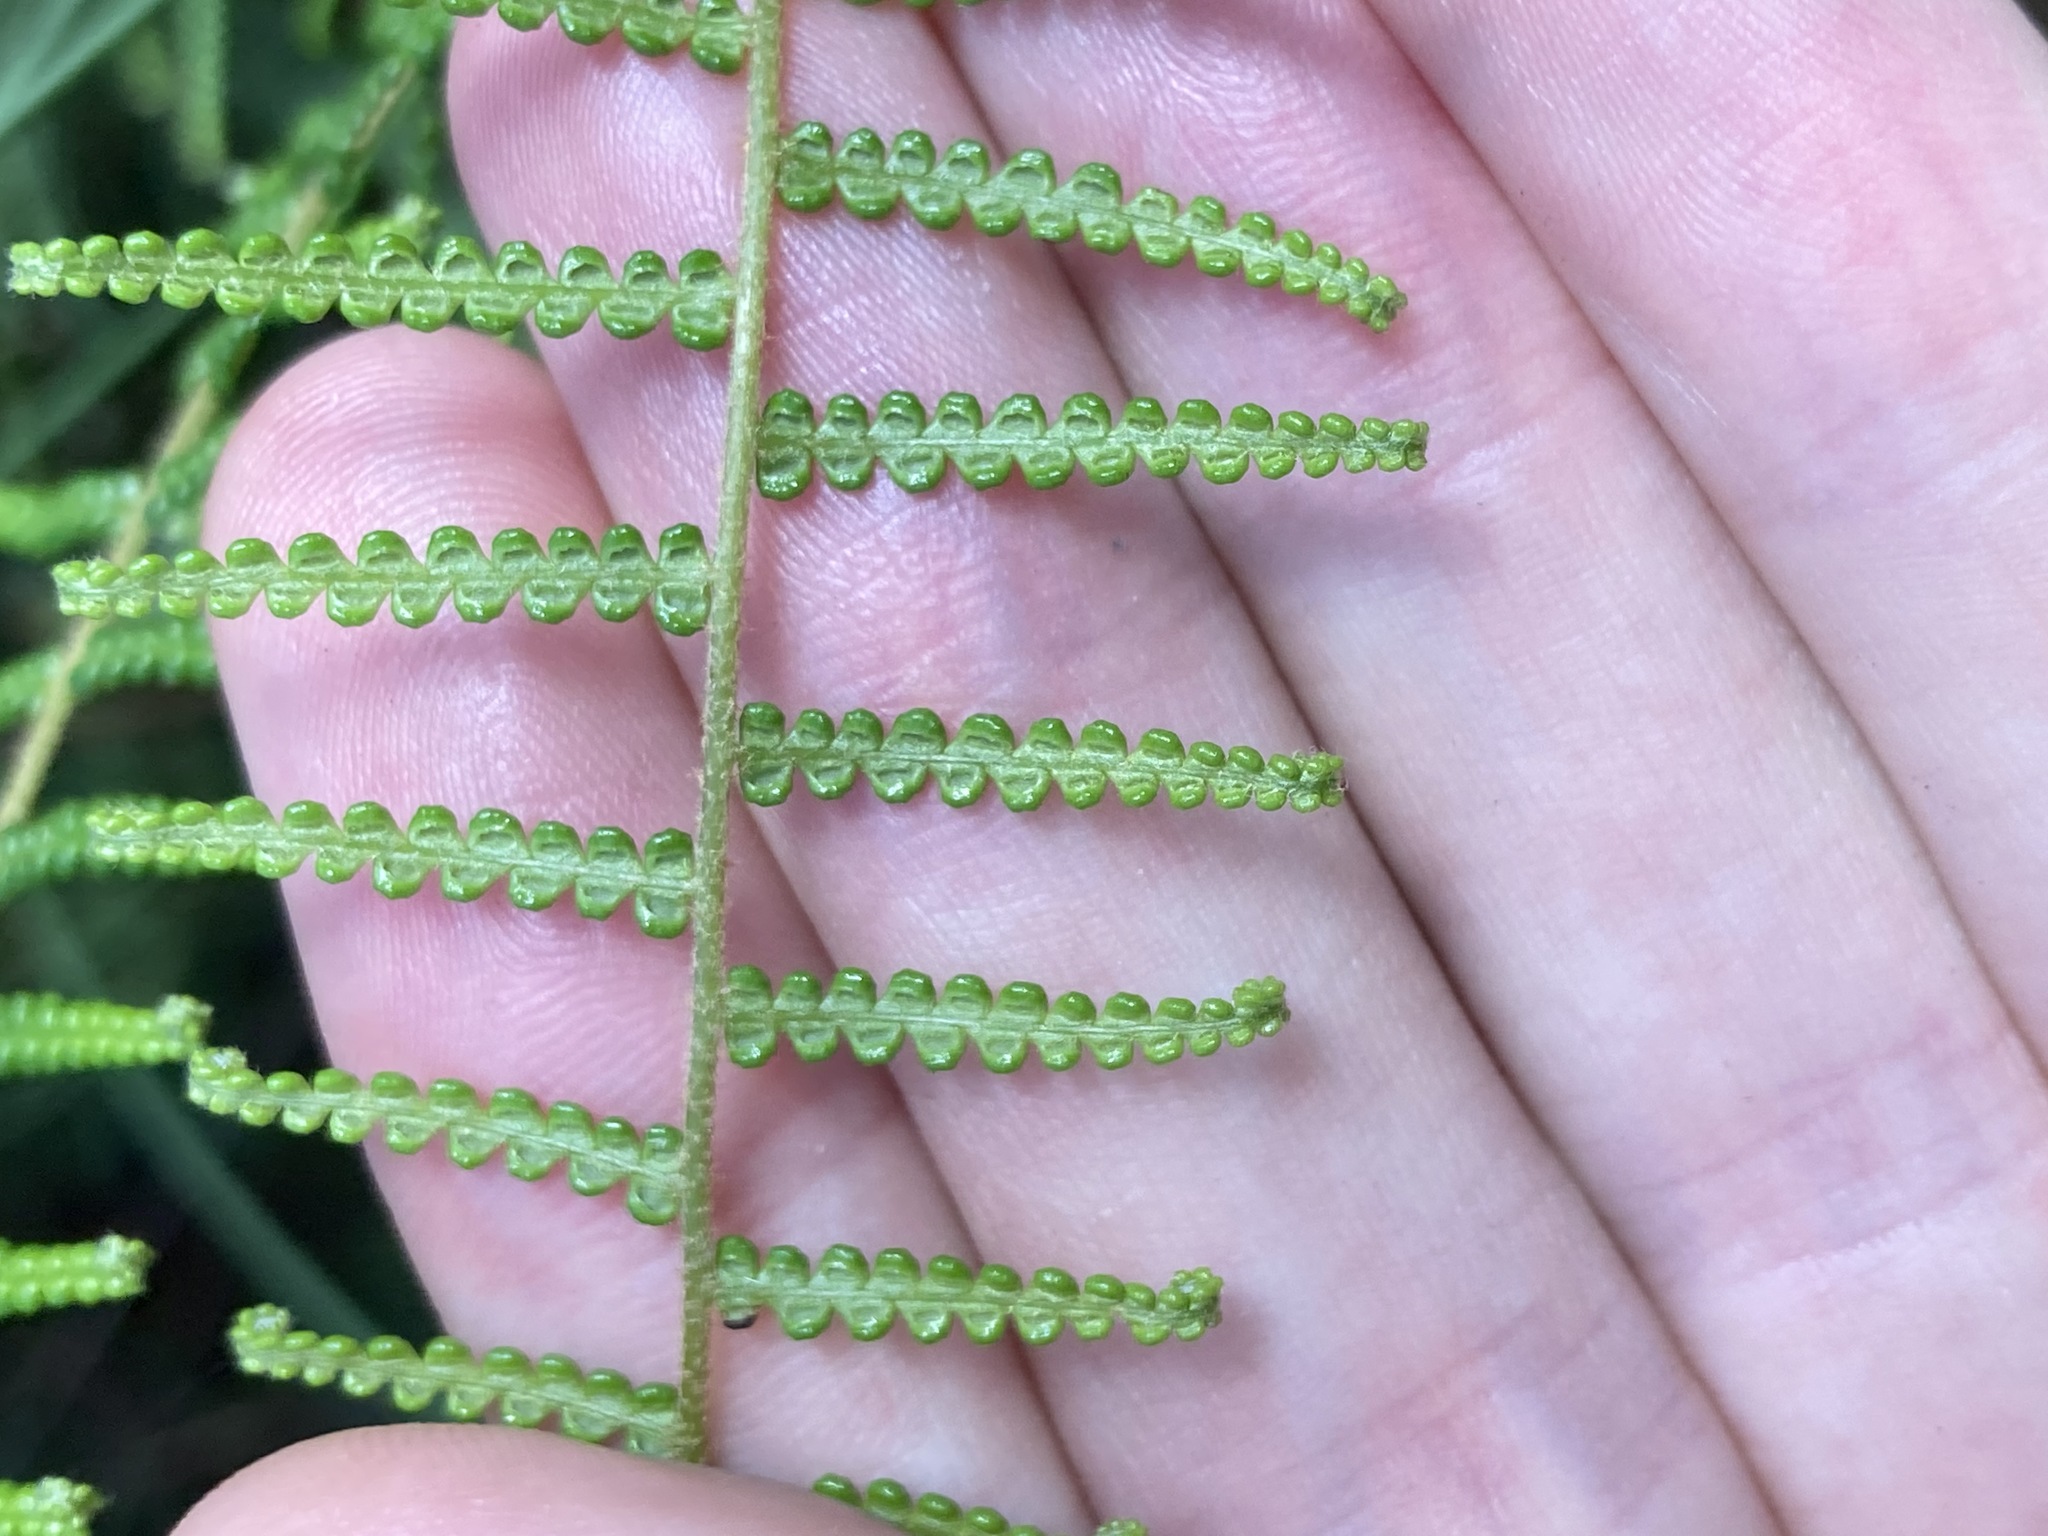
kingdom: Plantae
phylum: Tracheophyta
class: Polypodiopsida
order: Gleicheniales
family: Gleicheniaceae
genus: Gleichenia
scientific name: Gleichenia dicarpa
